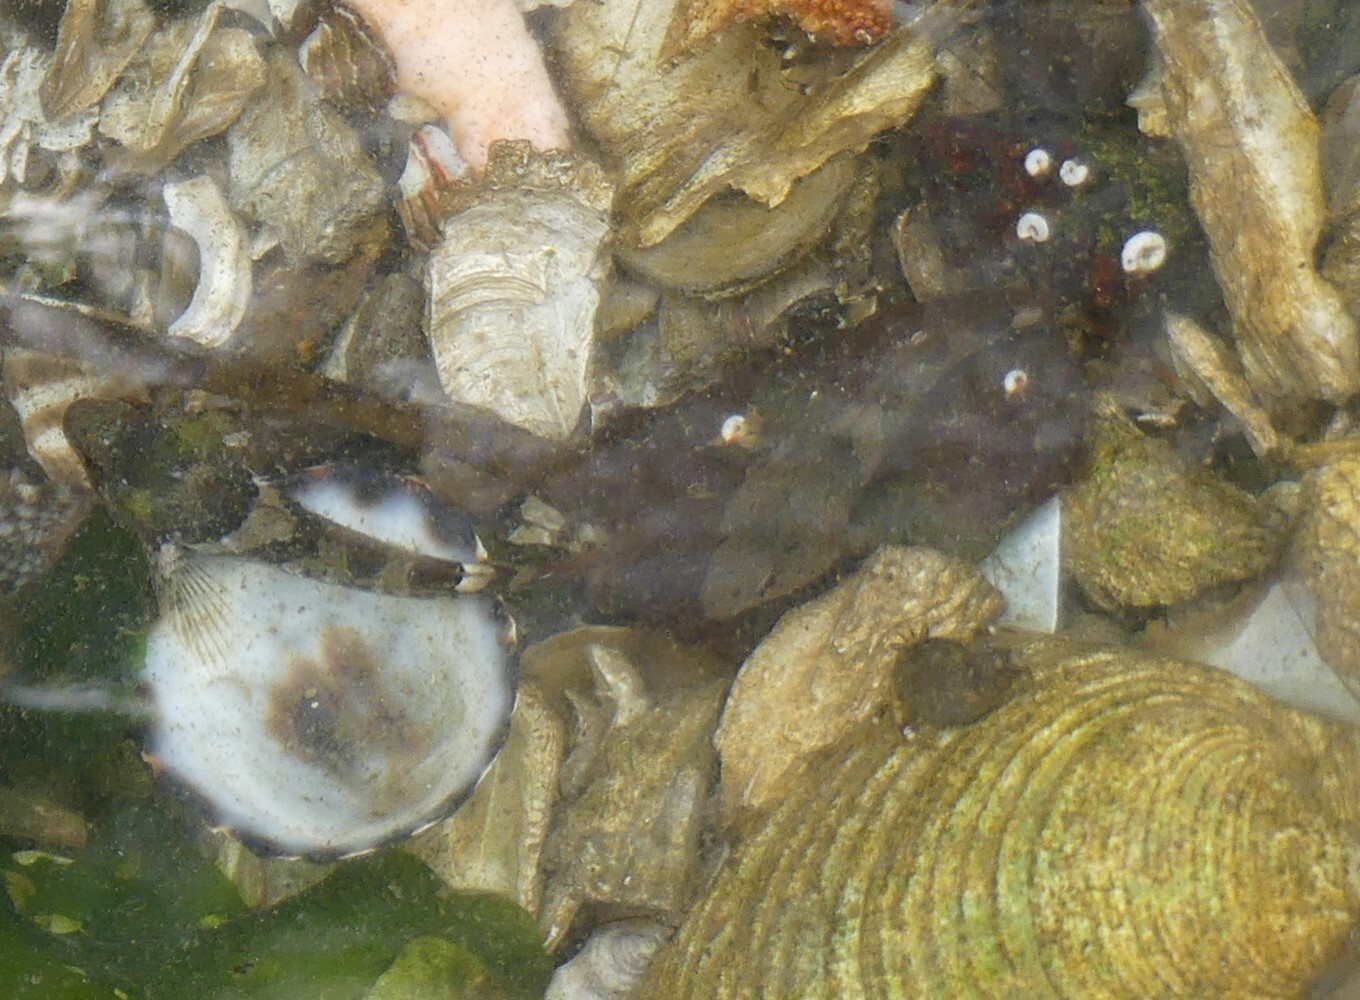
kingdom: Animalia
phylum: Chordata
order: Scorpaeniformes
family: Cottidae
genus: Oligocottus
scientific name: Oligocottus maculosus
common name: Tidepool sculpin
